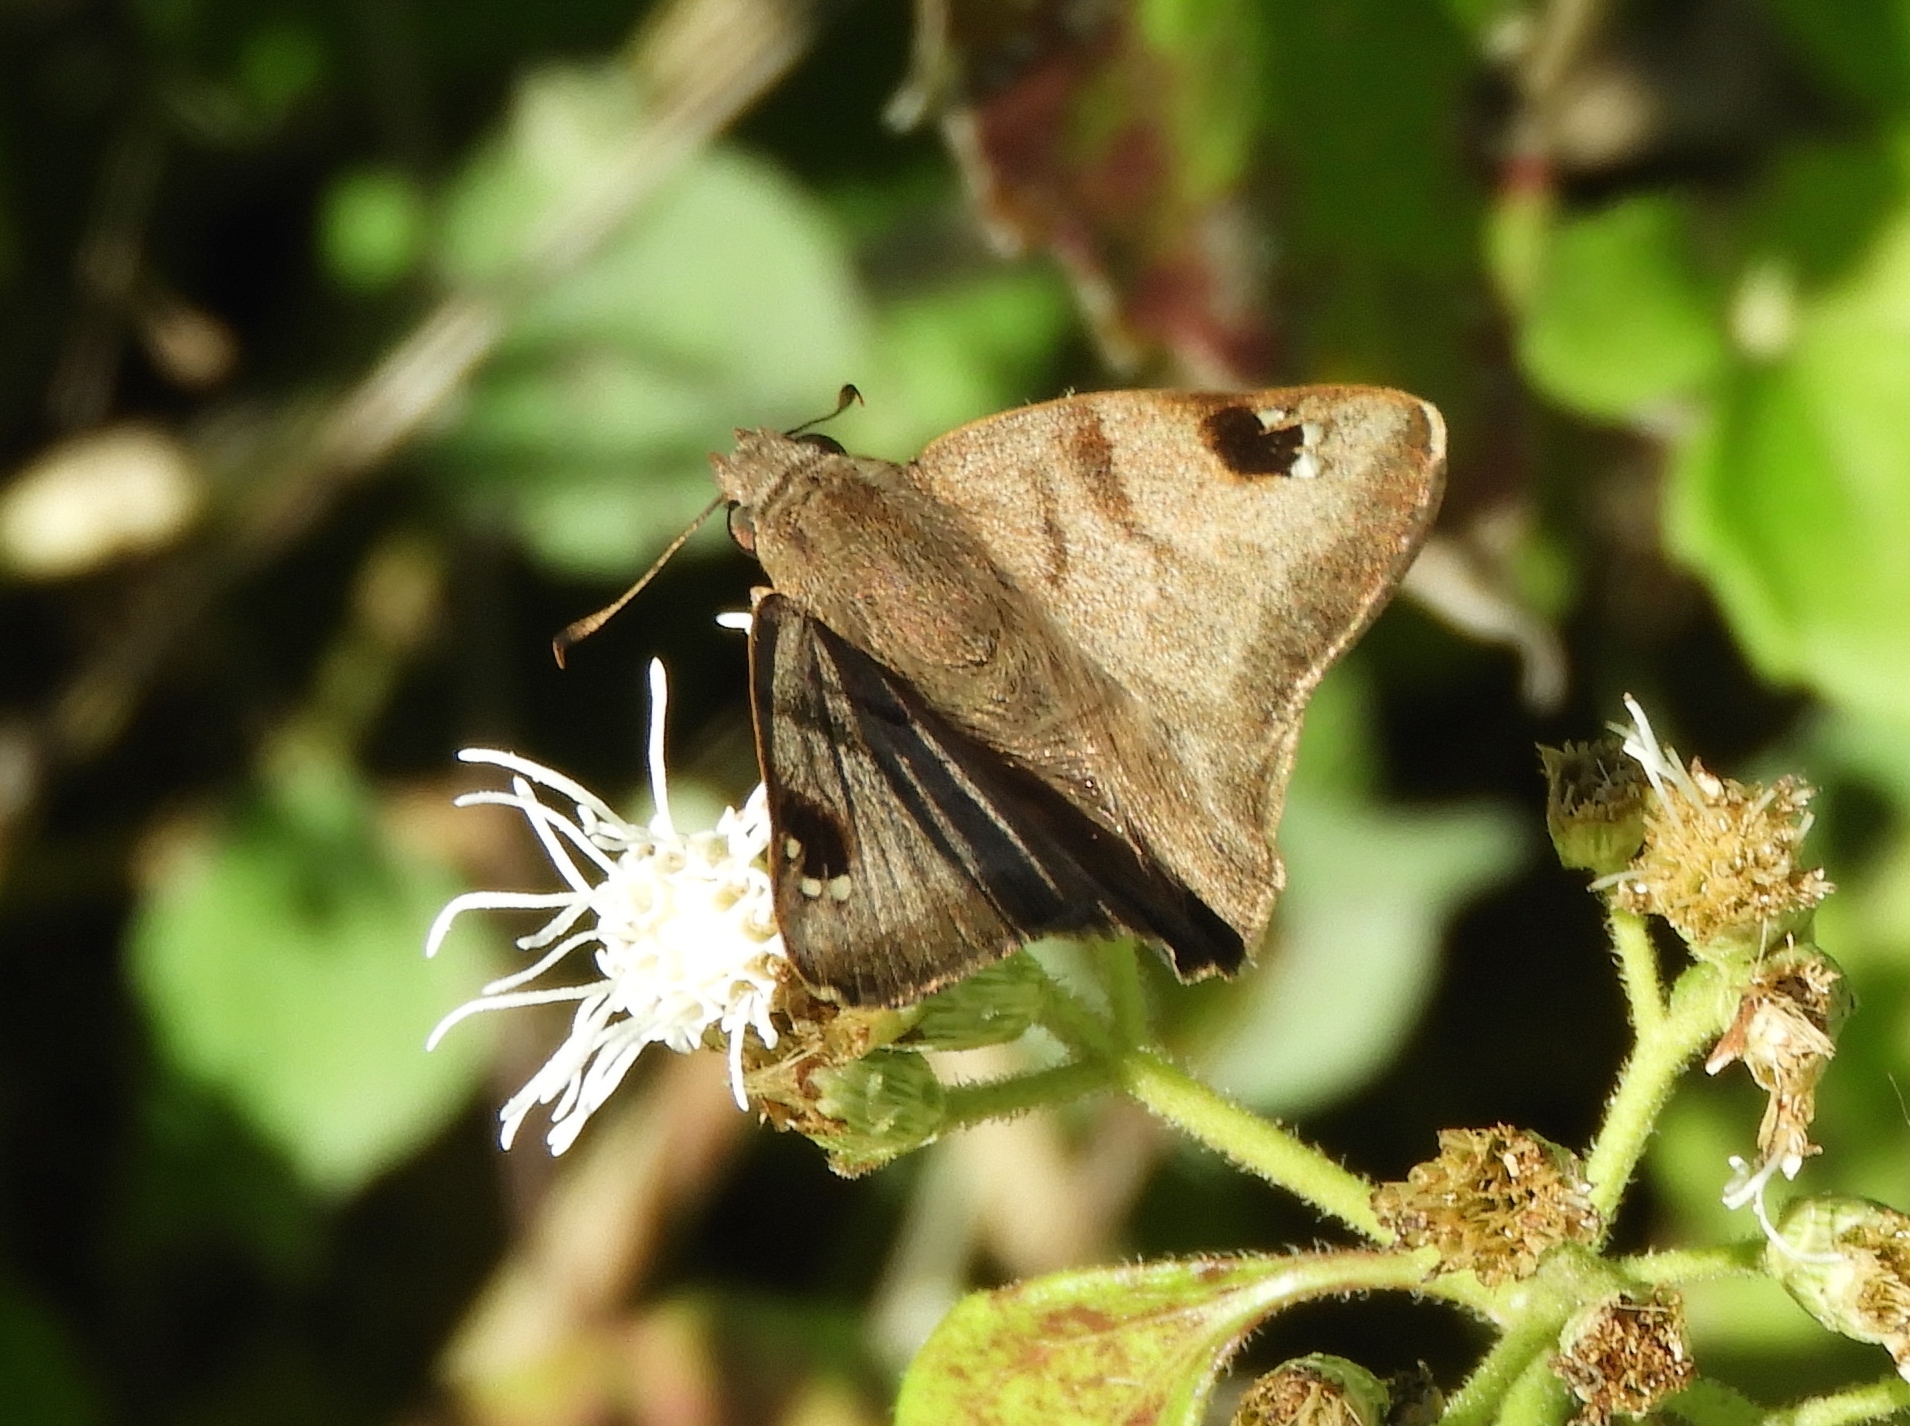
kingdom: Animalia
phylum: Arthropoda
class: Insecta
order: Lepidoptera
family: Hesperiidae
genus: Arteurotia
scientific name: Arteurotia tractipennis
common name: Starred skipper
